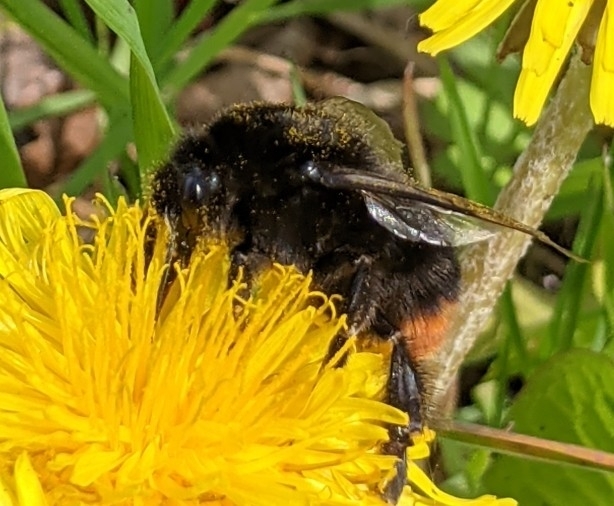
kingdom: Animalia
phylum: Arthropoda
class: Insecta
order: Hymenoptera
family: Apidae
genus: Bombus
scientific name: Bombus lapidarius
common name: Large red-tailed humble-bee
